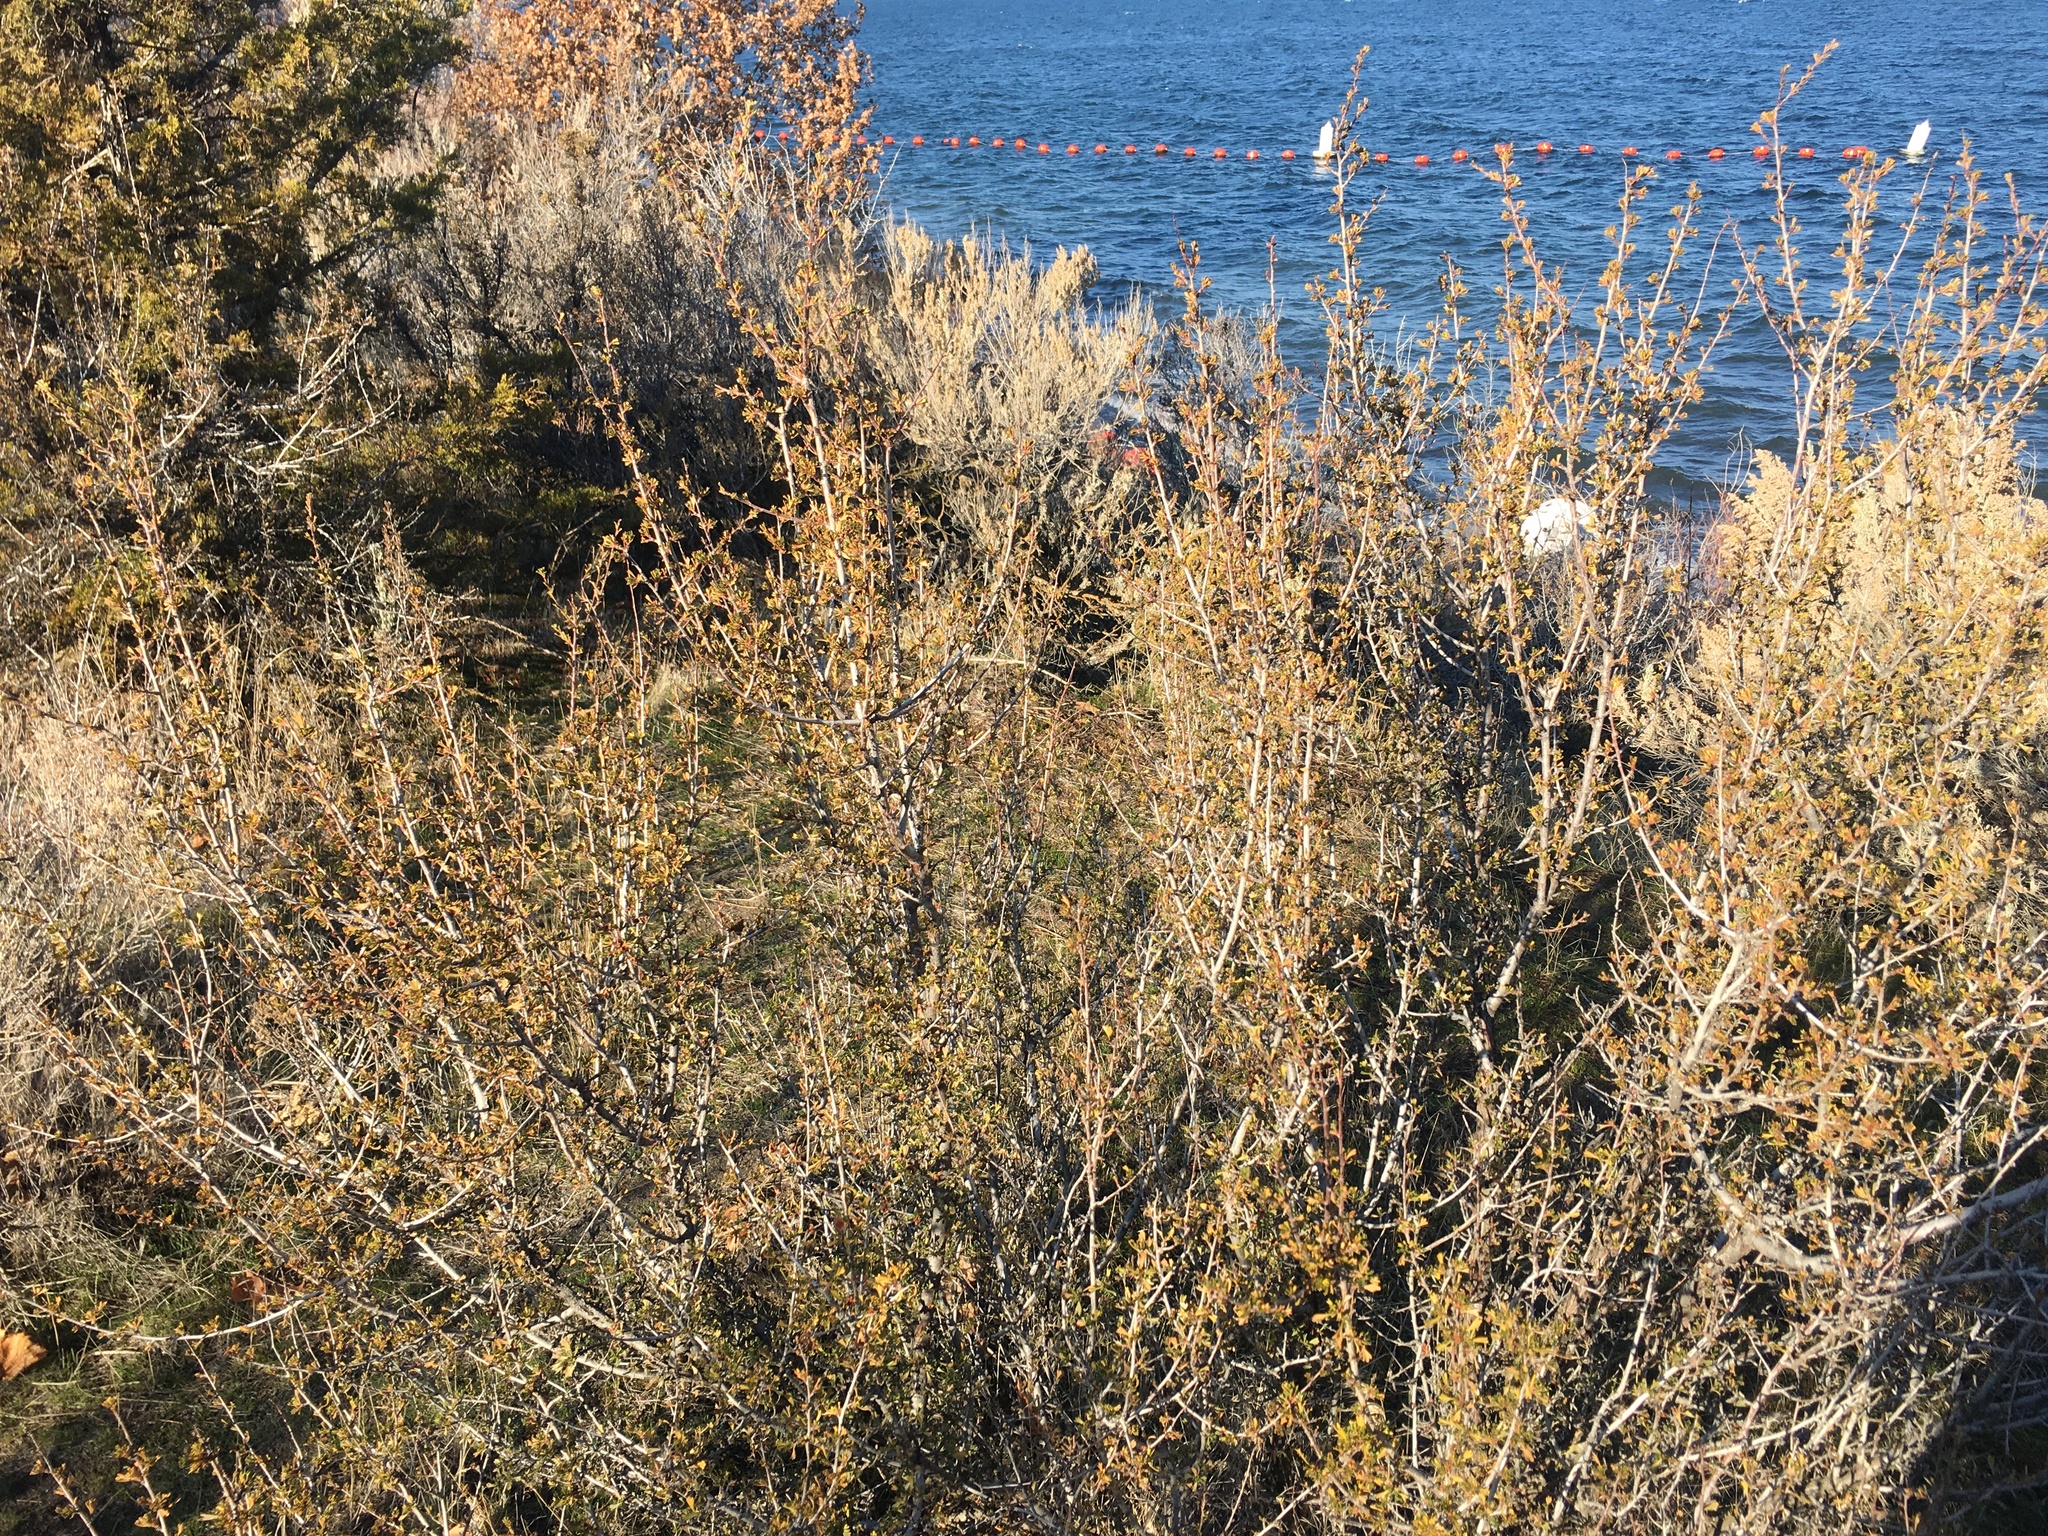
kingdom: Plantae
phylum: Tracheophyta
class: Magnoliopsida
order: Rosales
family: Rosaceae
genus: Purshia
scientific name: Purshia tridentata
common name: Antelope bitterbrush
